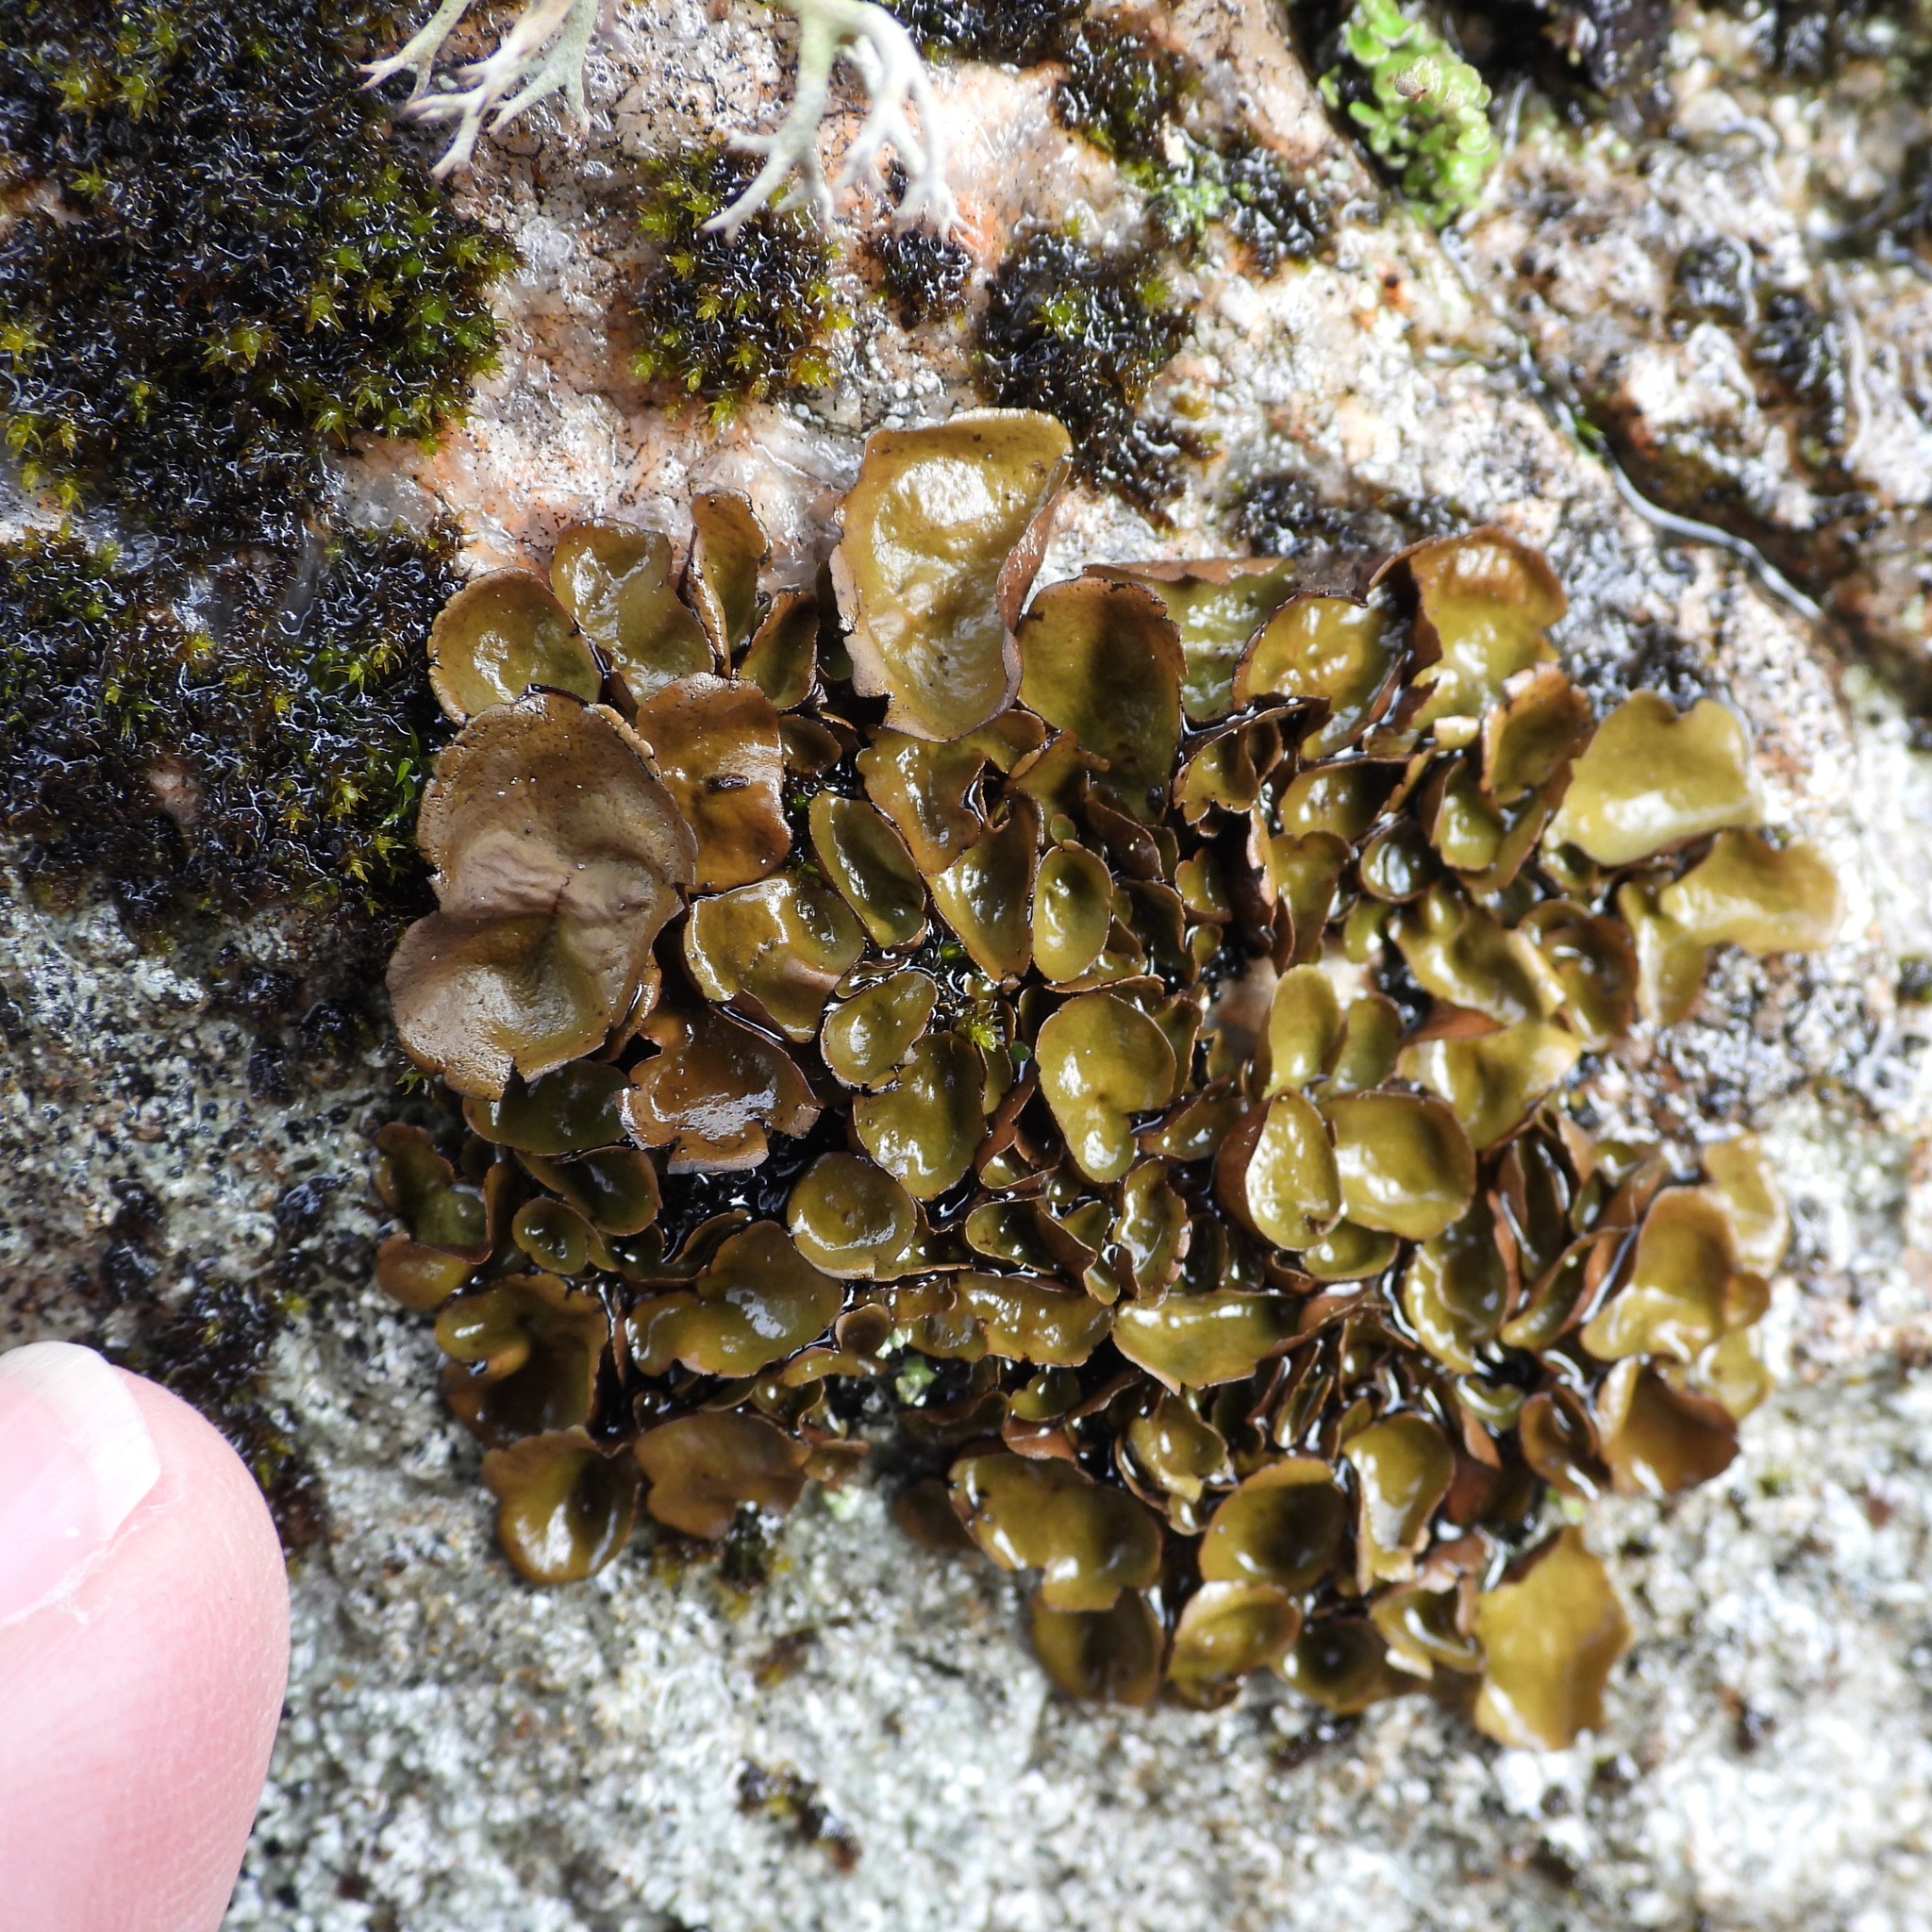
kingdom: Fungi
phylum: Ascomycota
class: Eurotiomycetes
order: Verrucariales
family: Verrucariaceae
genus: Dermatocarpon
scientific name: Dermatocarpon luridum
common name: Brook stippleback lichen
